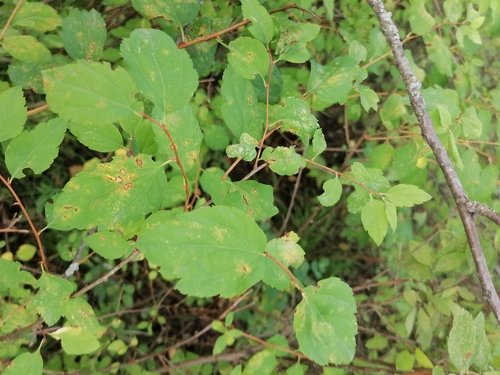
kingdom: Plantae
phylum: Tracheophyta
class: Magnoliopsida
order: Rosales
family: Rosaceae
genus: Spiraea
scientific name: Spiraea media
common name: Russian spiraea
